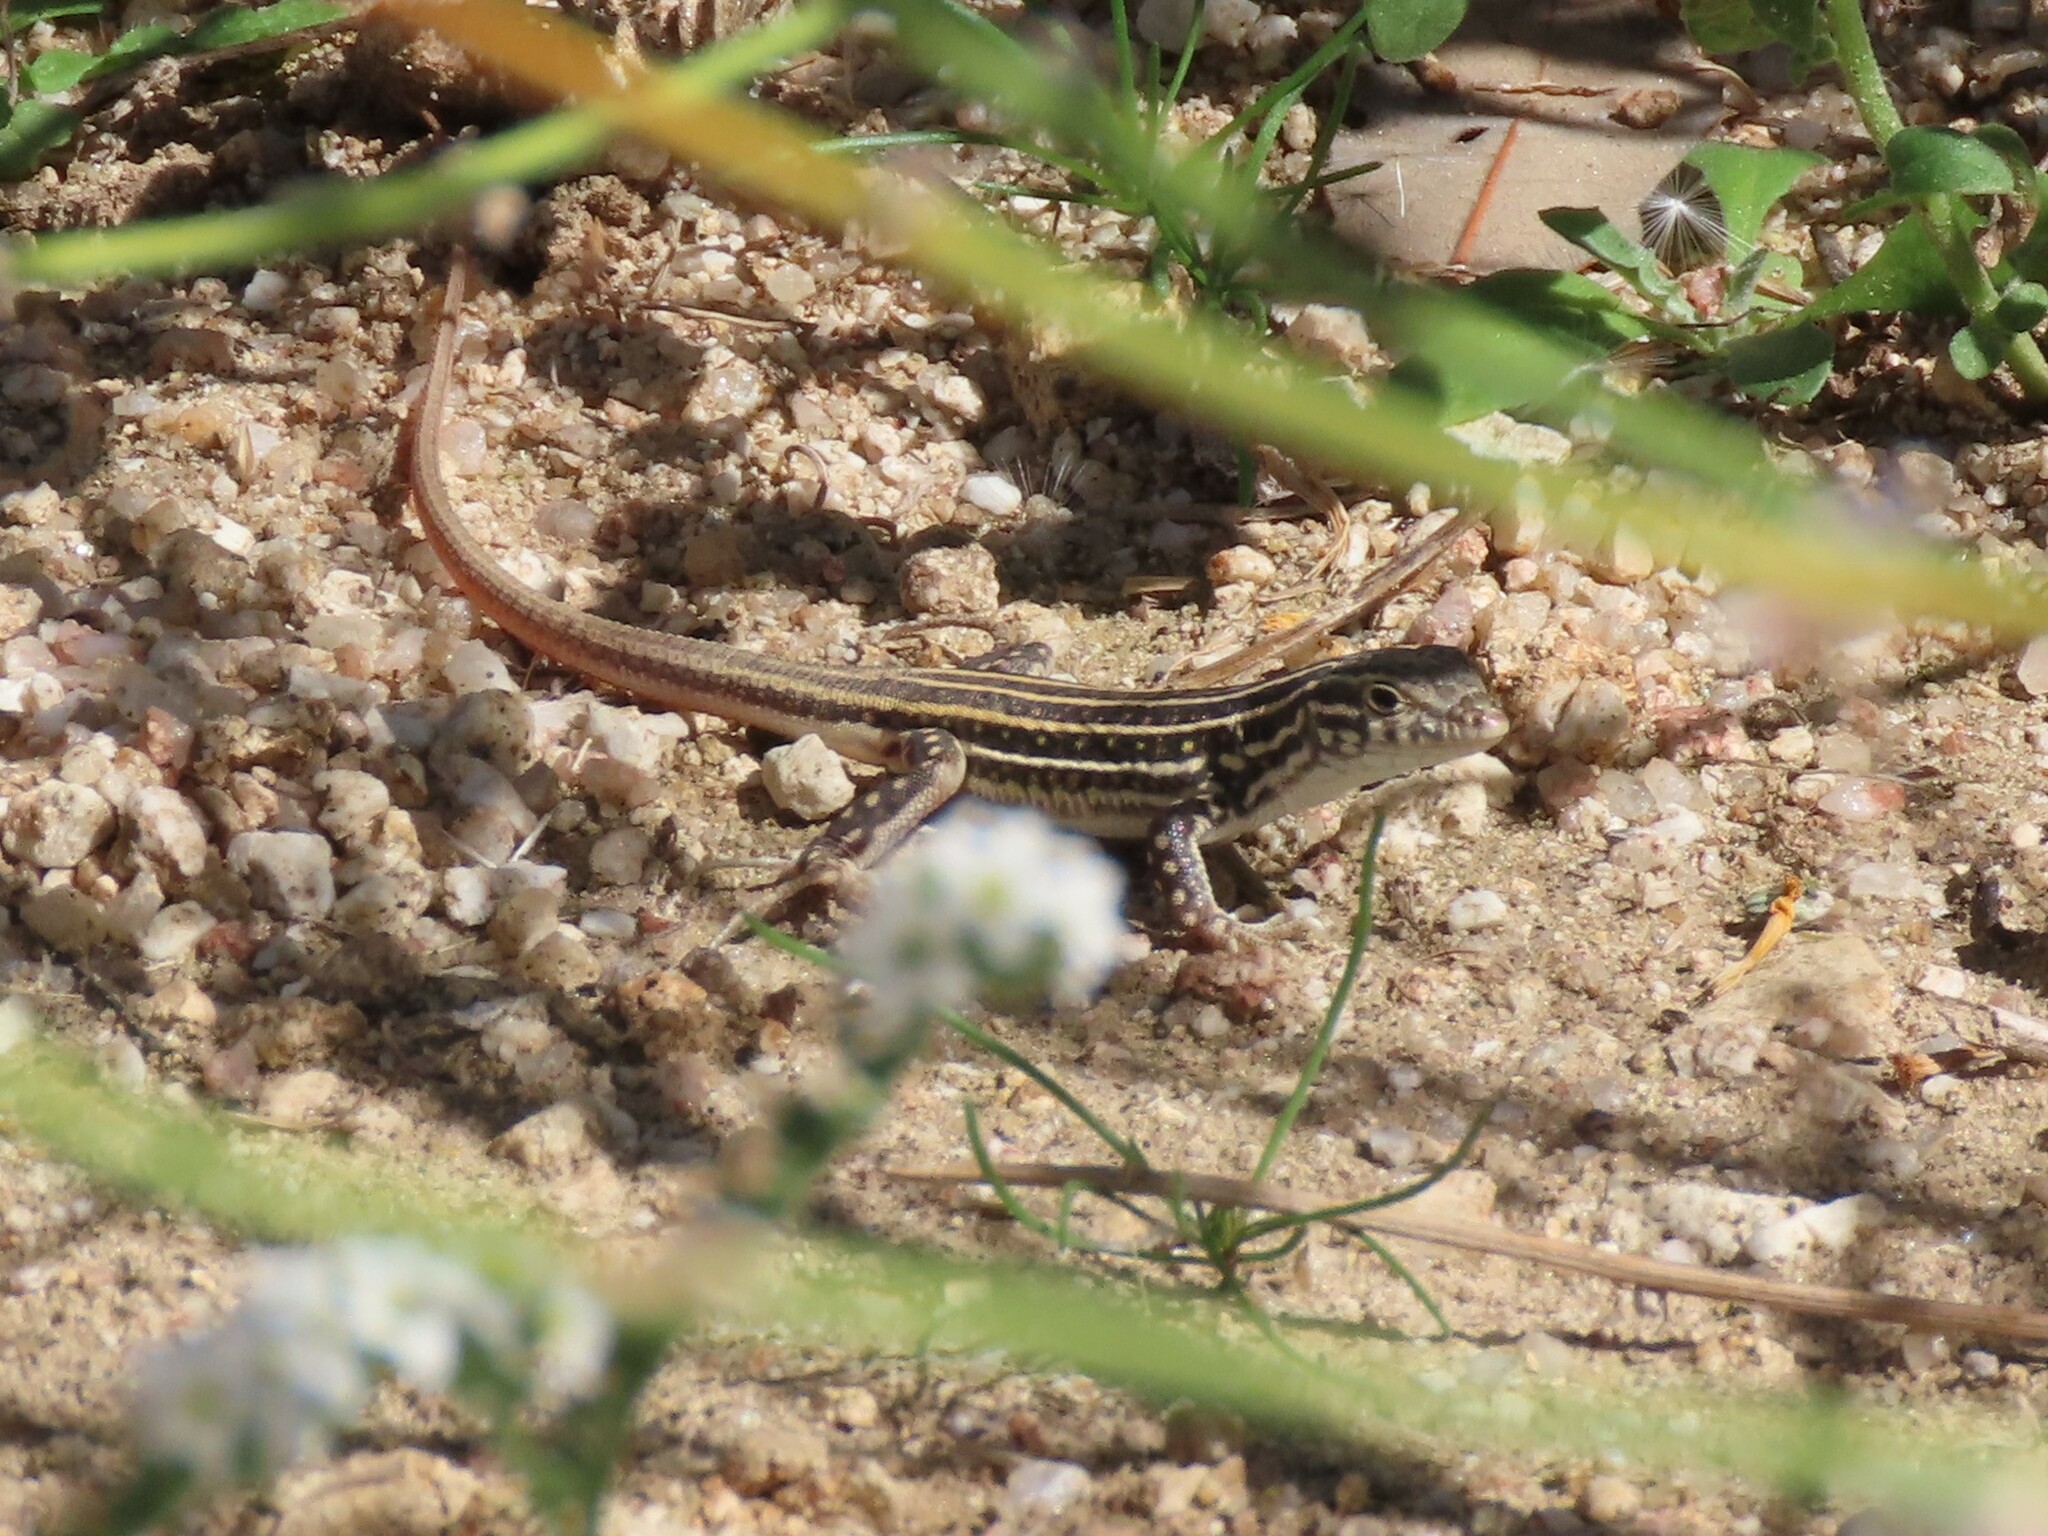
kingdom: Animalia
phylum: Chordata
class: Squamata
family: Lacertidae
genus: Acanthodactylus
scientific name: Acanthodactylus erythrurus
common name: Spiny-footed lizard
